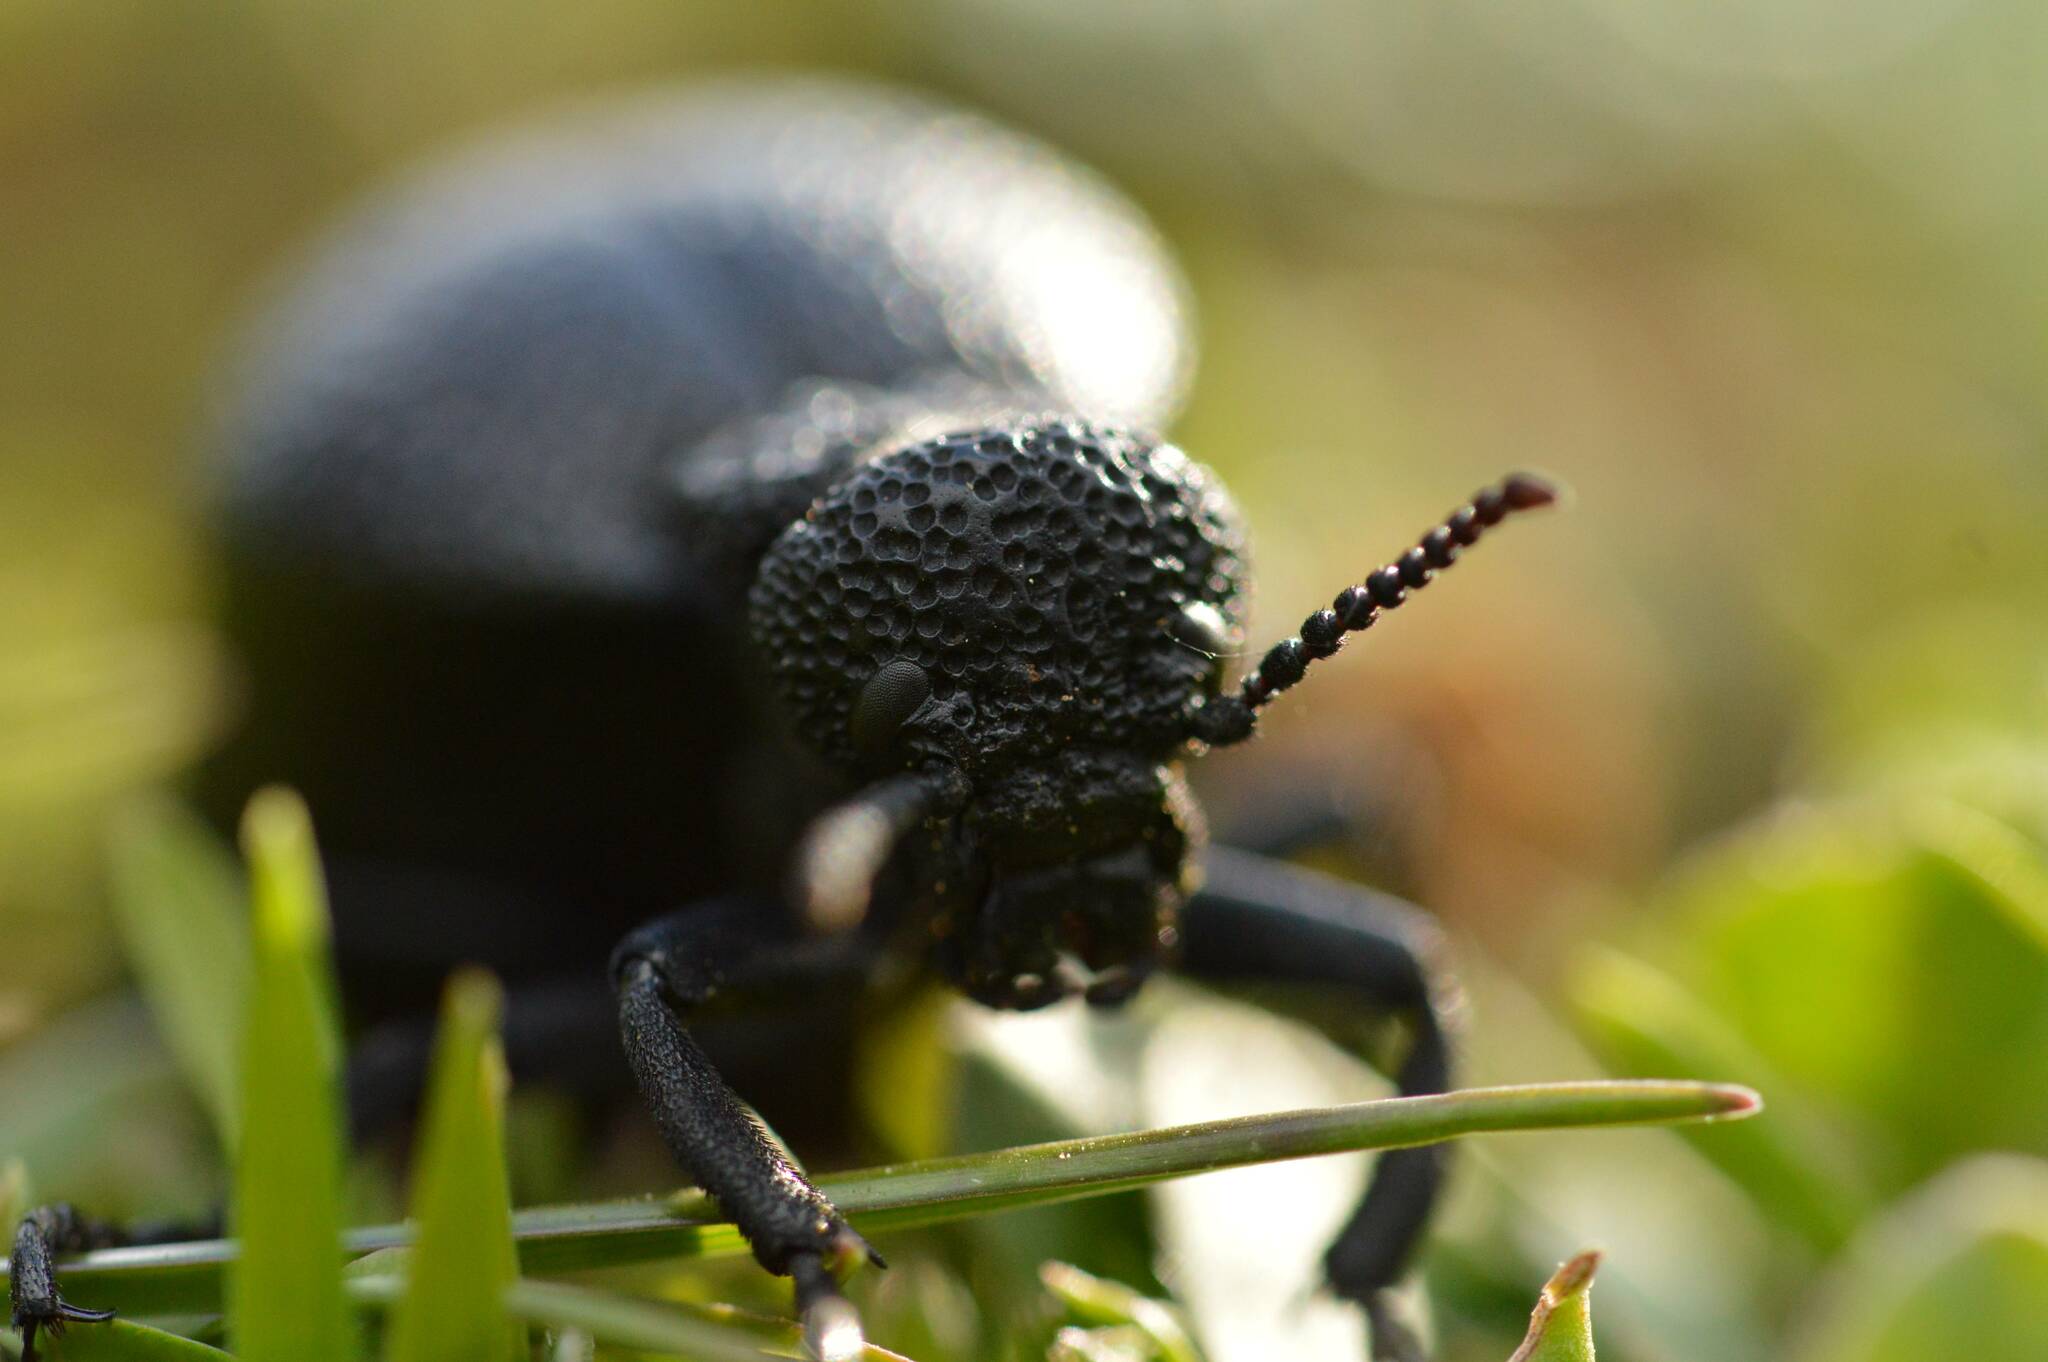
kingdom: Animalia
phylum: Arthropoda
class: Insecta
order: Coleoptera
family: Meloidae
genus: Meloe
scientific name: Meloe tuccius
